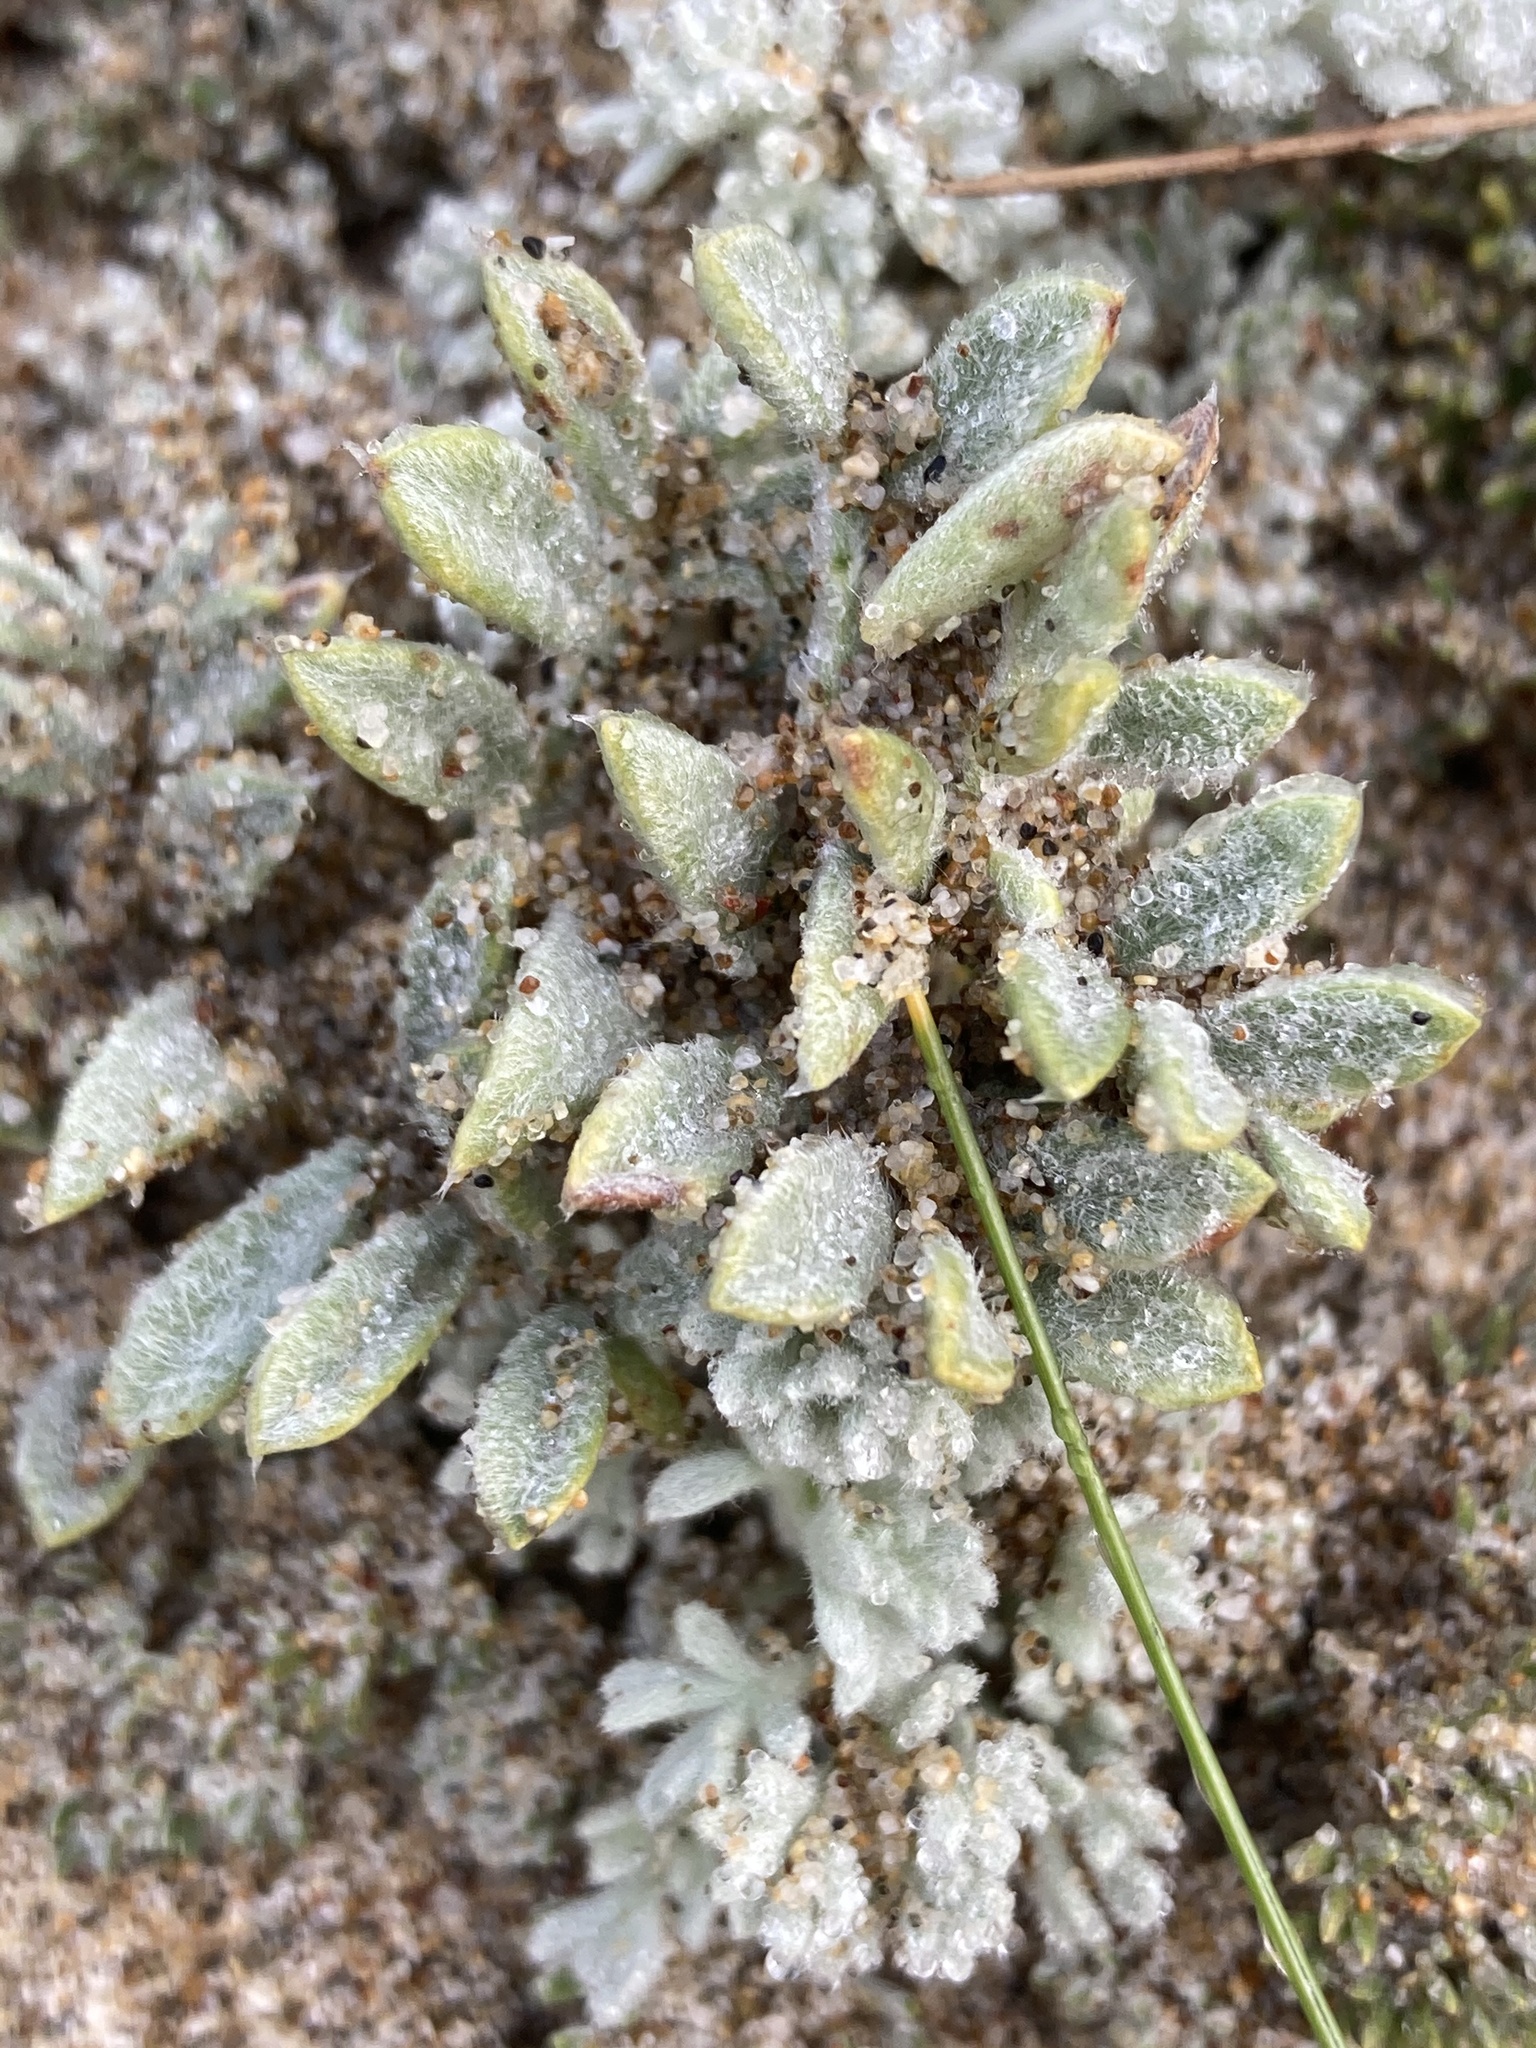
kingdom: Plantae
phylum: Tracheophyta
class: Magnoliopsida
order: Fabales
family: Fabaceae
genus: Lathyrus
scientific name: Lathyrus littoralis
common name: Dune sweet pea
